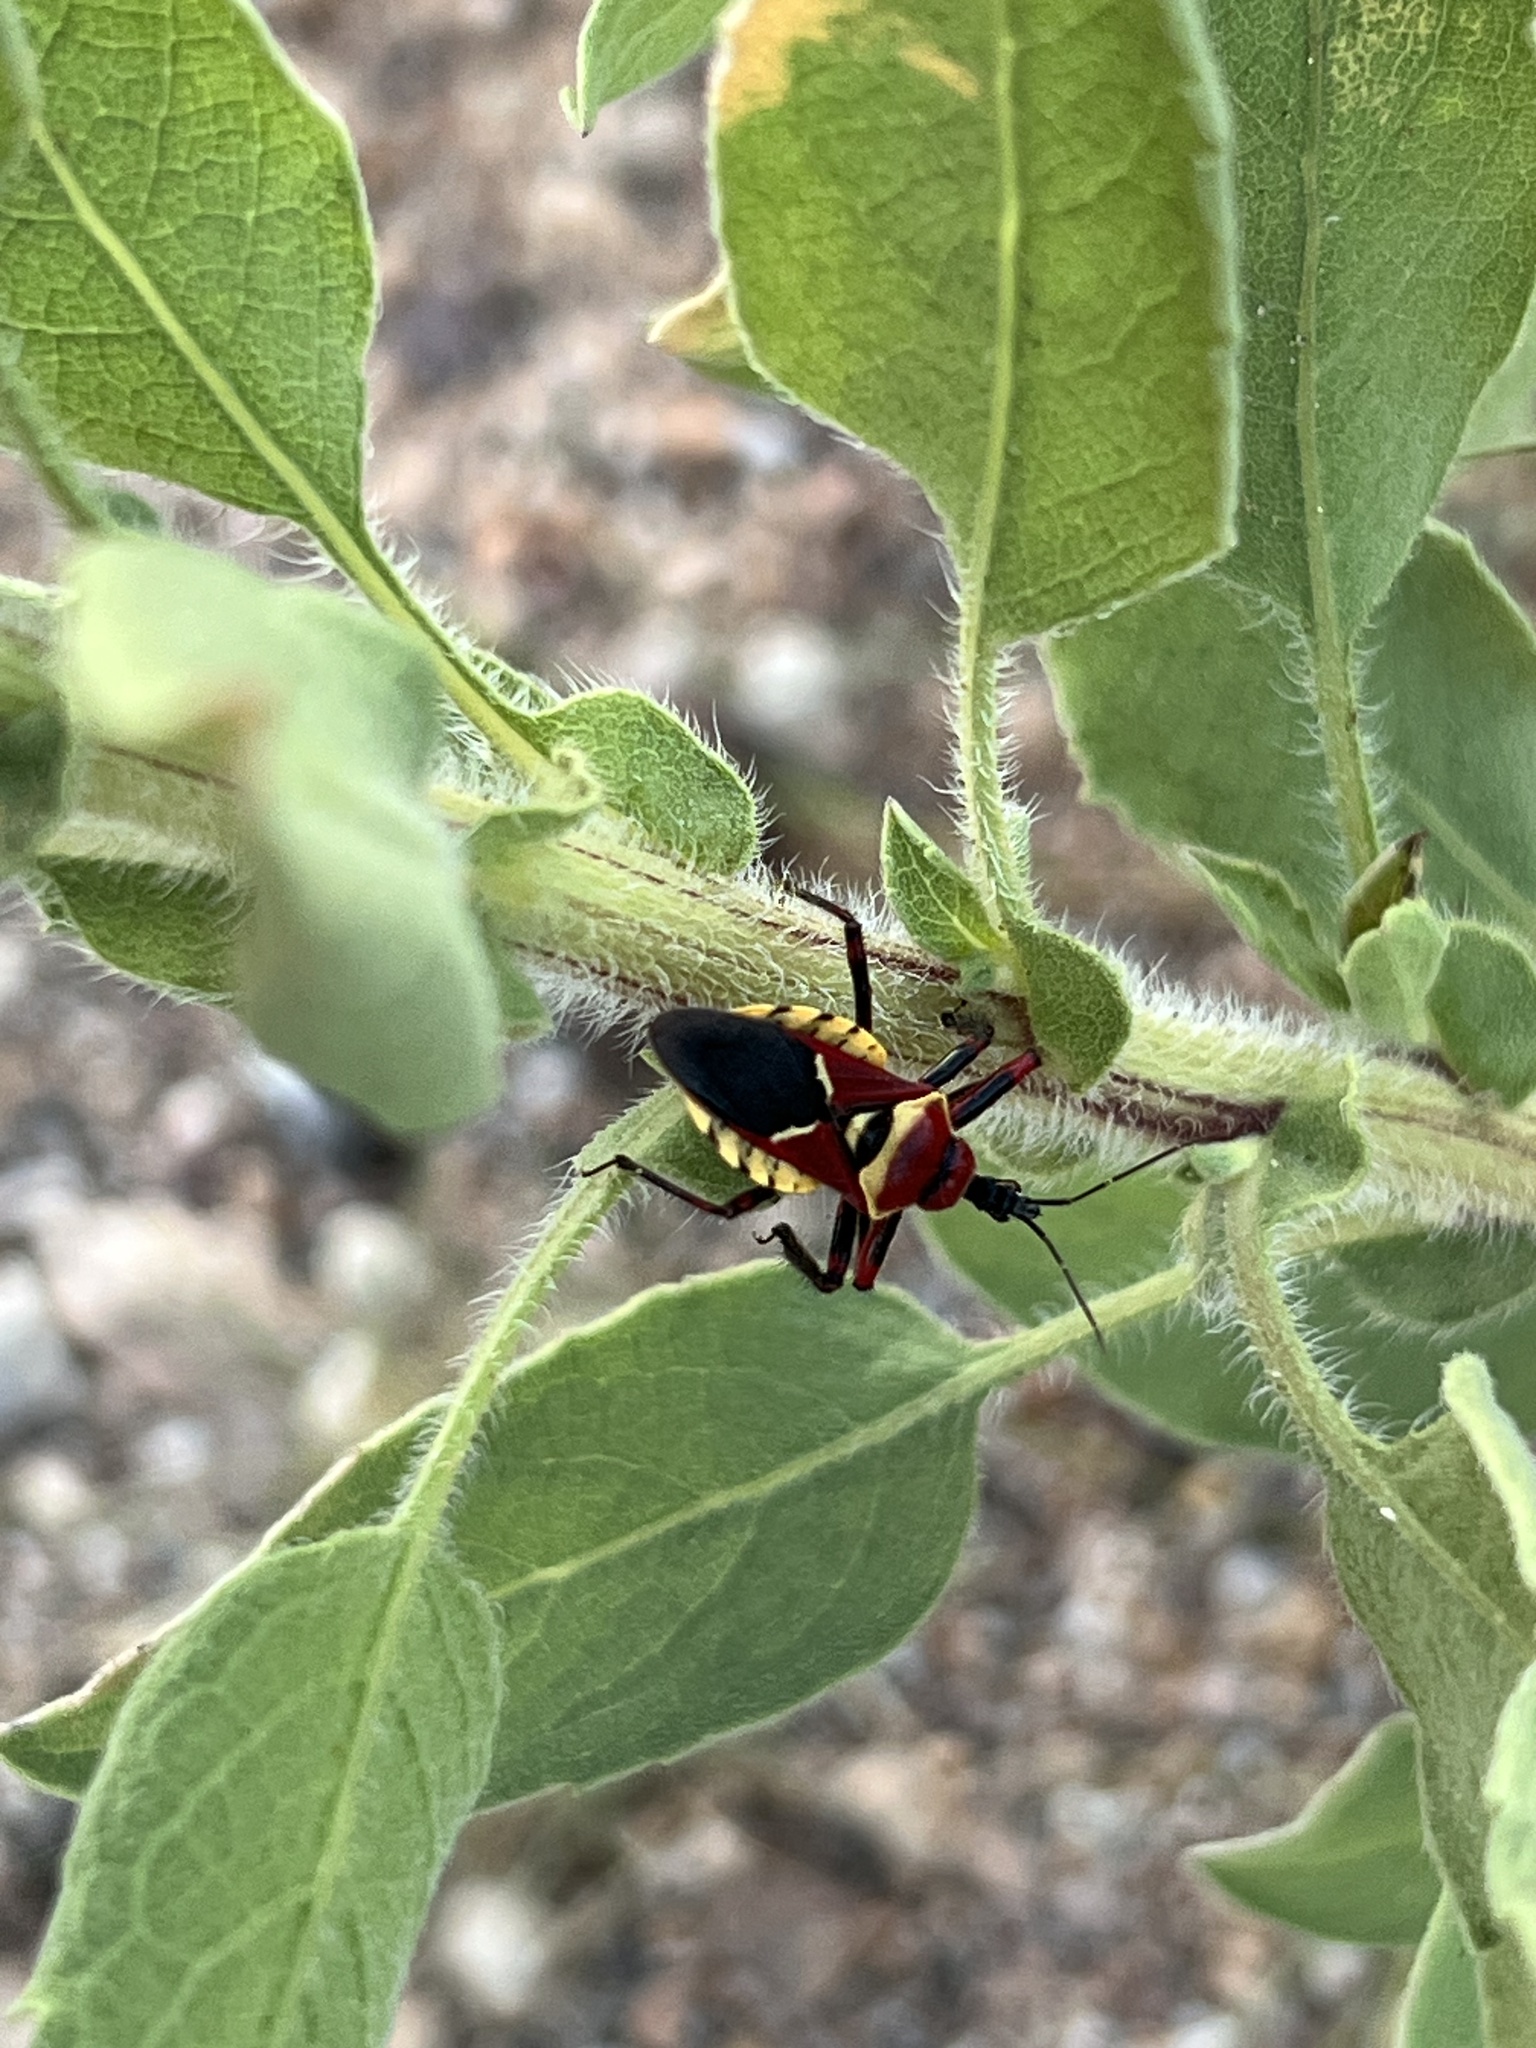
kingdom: Animalia
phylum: Arthropoda
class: Insecta
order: Hemiptera
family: Reduviidae
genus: Apiomerus
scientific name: Apiomerus flaviventris
